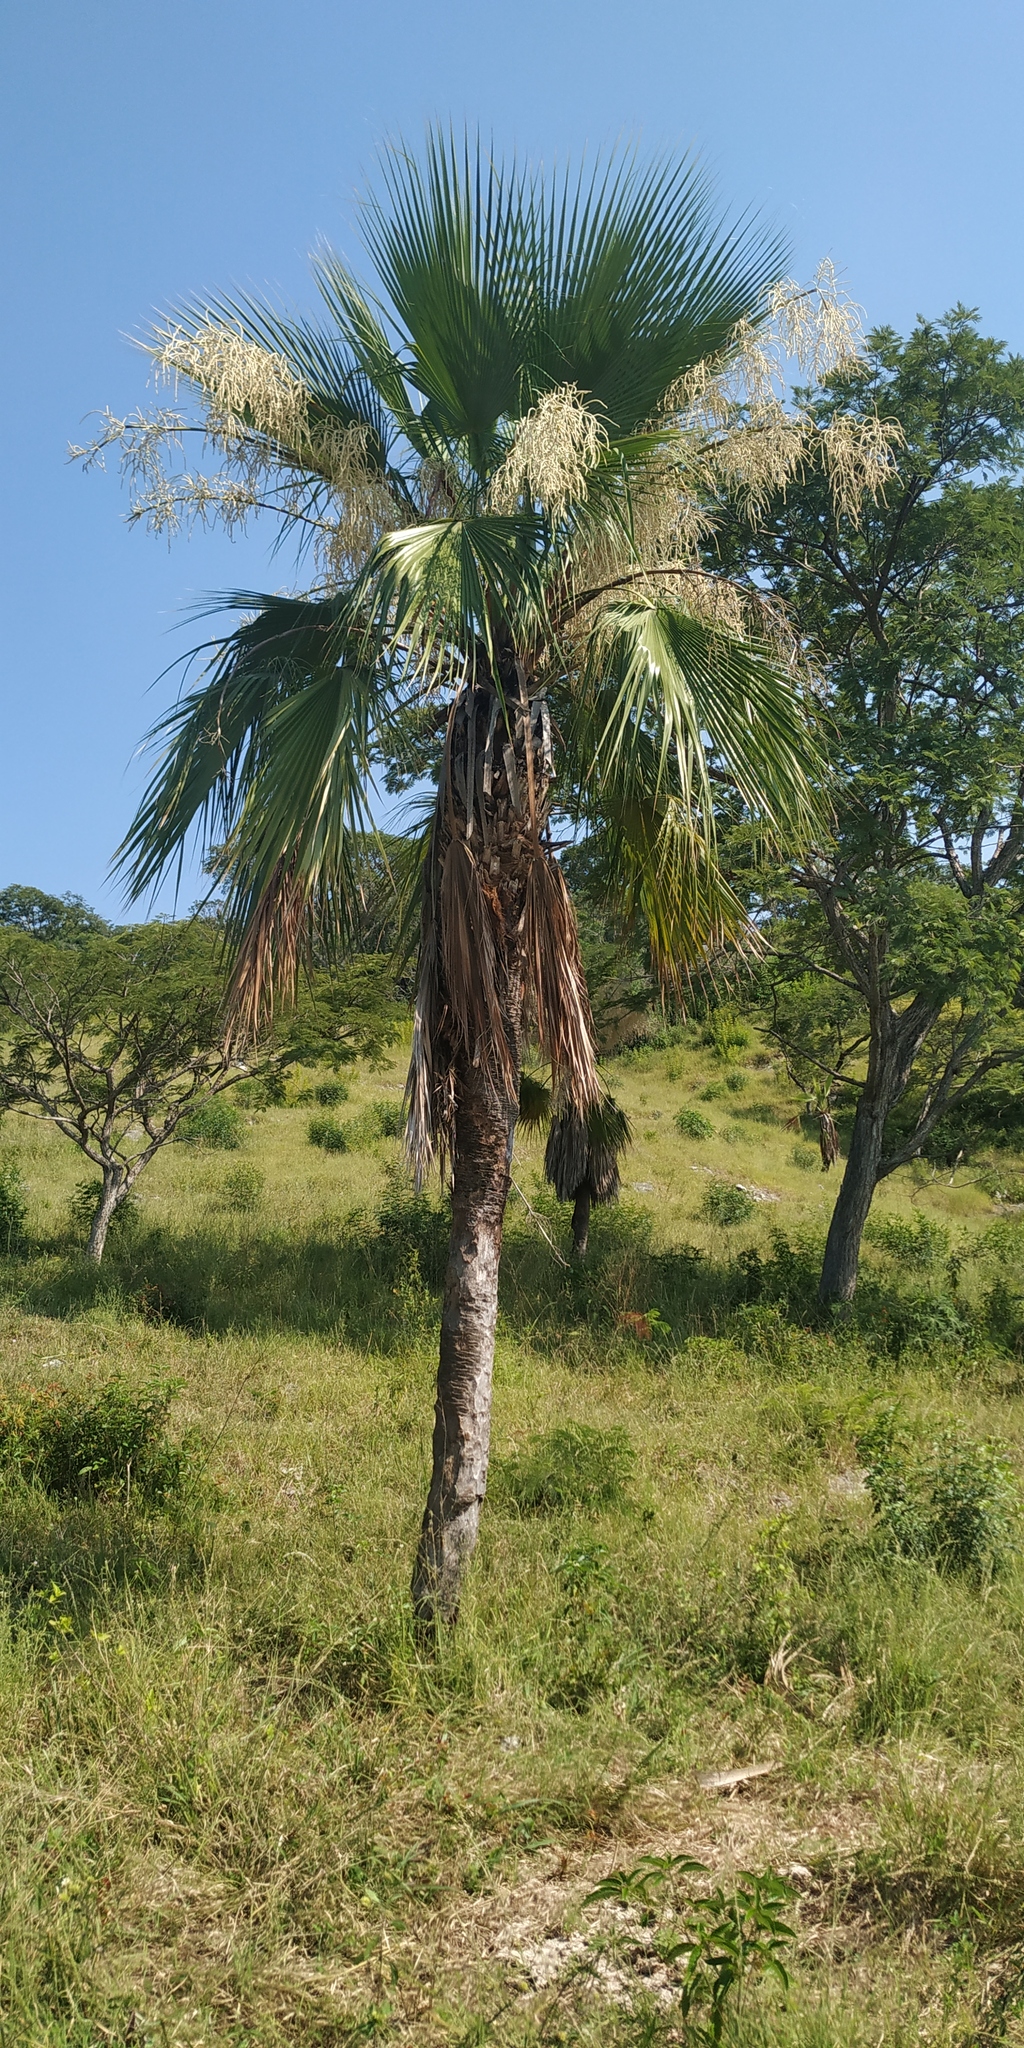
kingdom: Plantae
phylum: Tracheophyta
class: Liliopsida
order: Arecales
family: Arecaceae
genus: Brahea
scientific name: Brahea dulcis
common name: Apak palm
